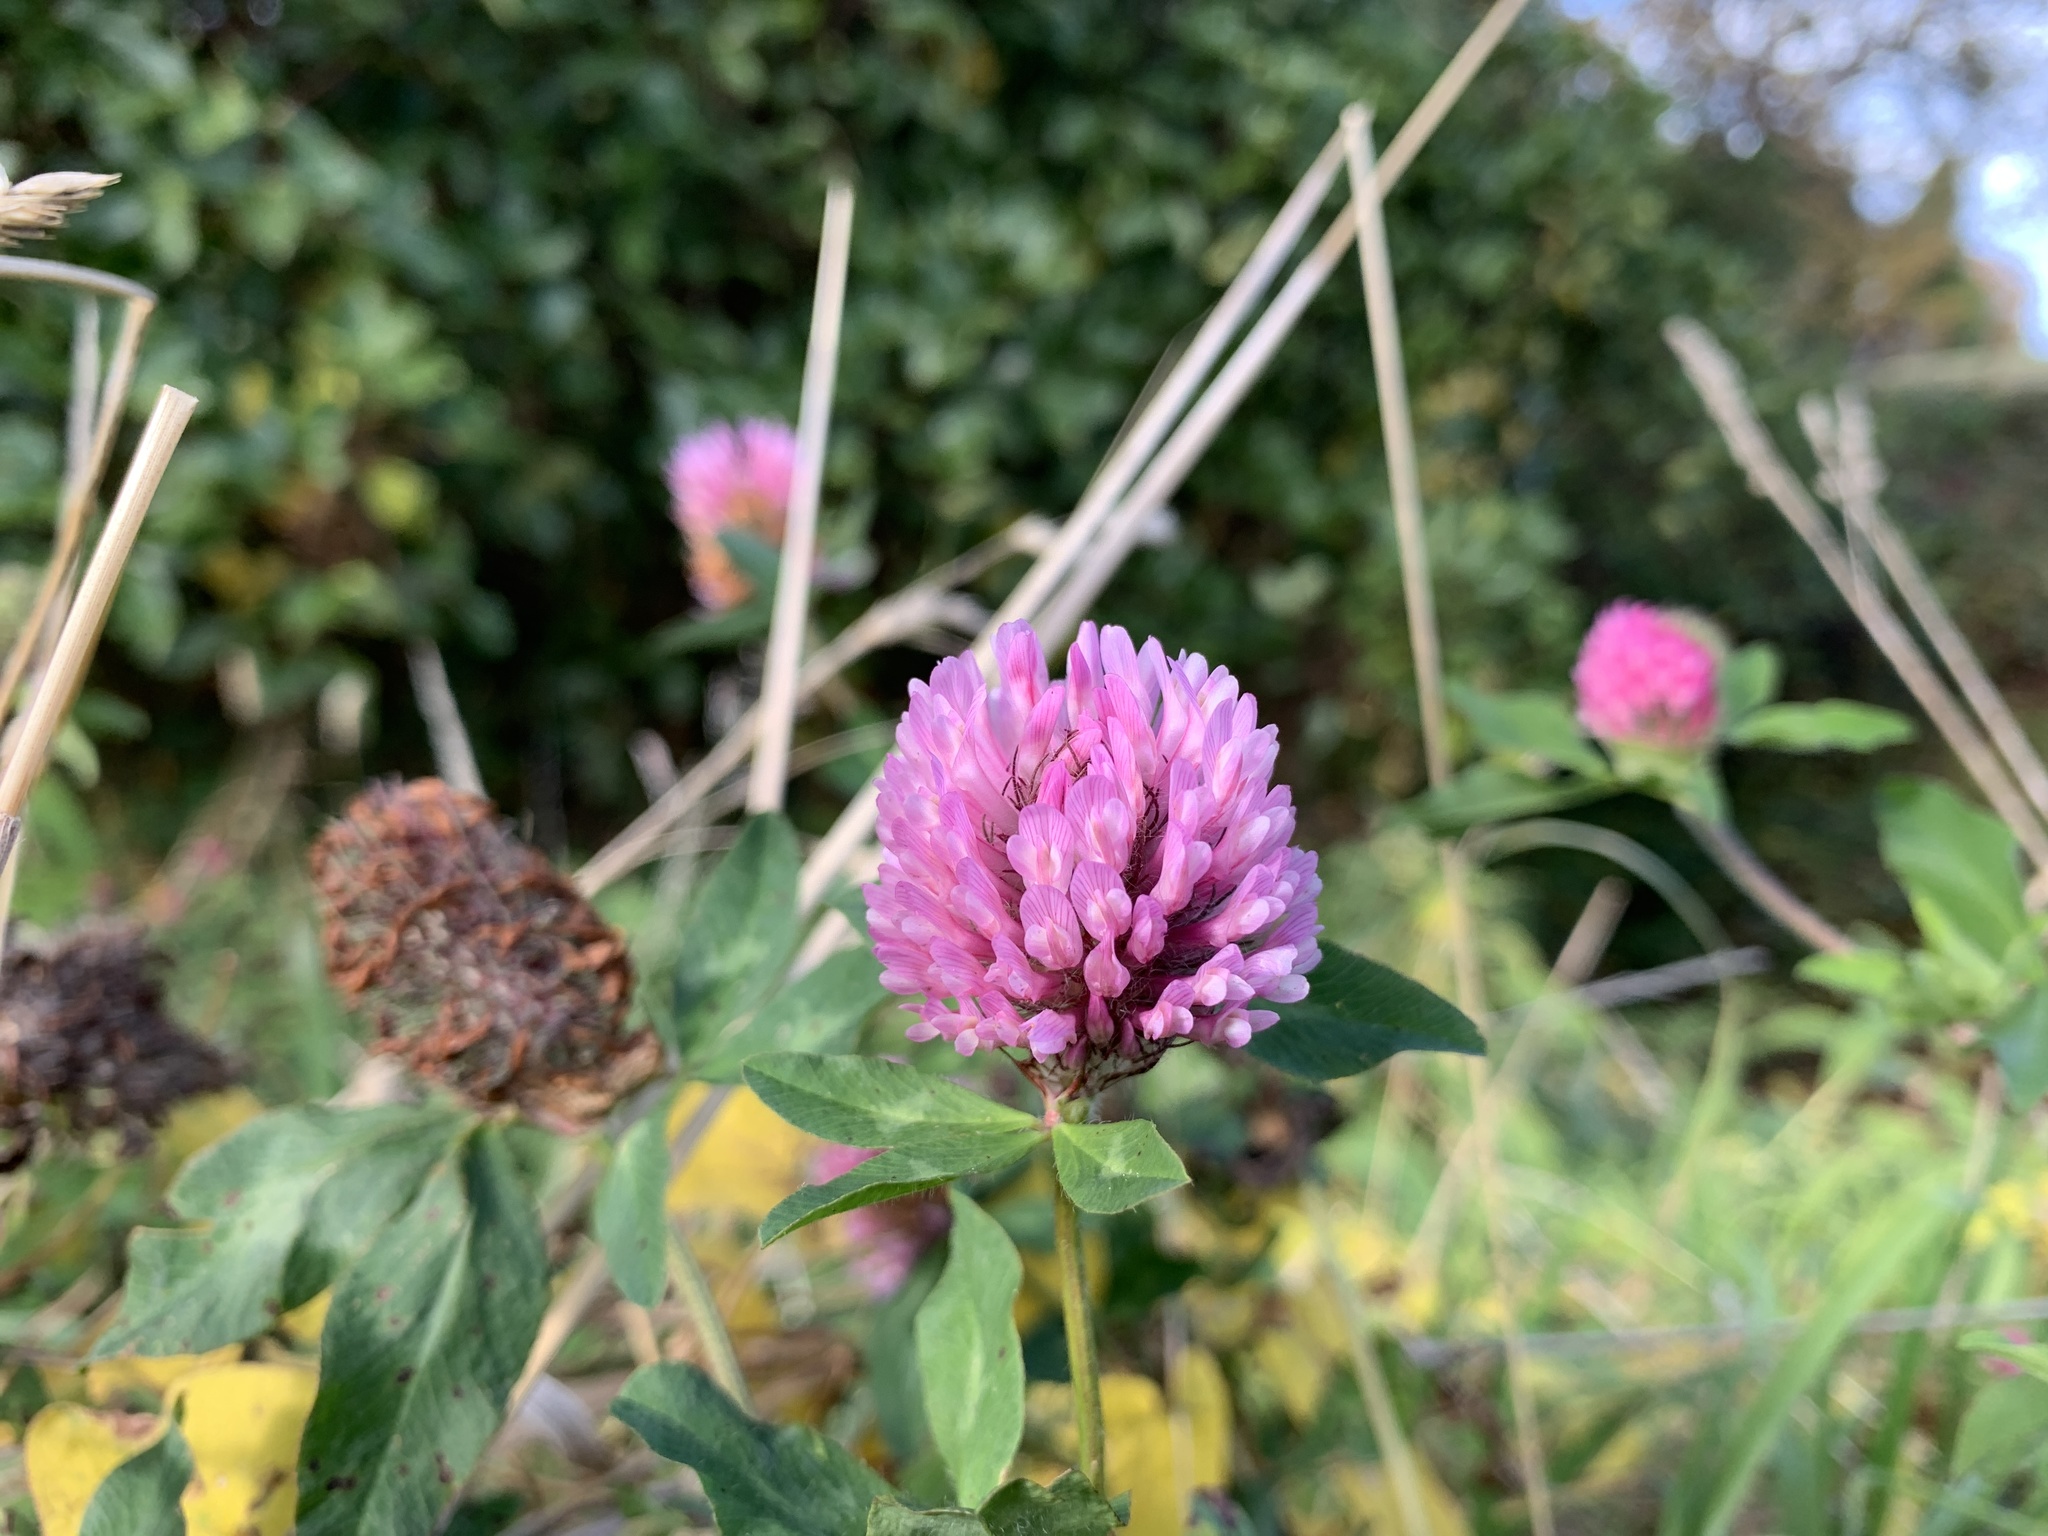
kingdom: Plantae
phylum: Tracheophyta
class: Magnoliopsida
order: Fabales
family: Fabaceae
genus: Trifolium
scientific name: Trifolium pratense
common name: Red clover
